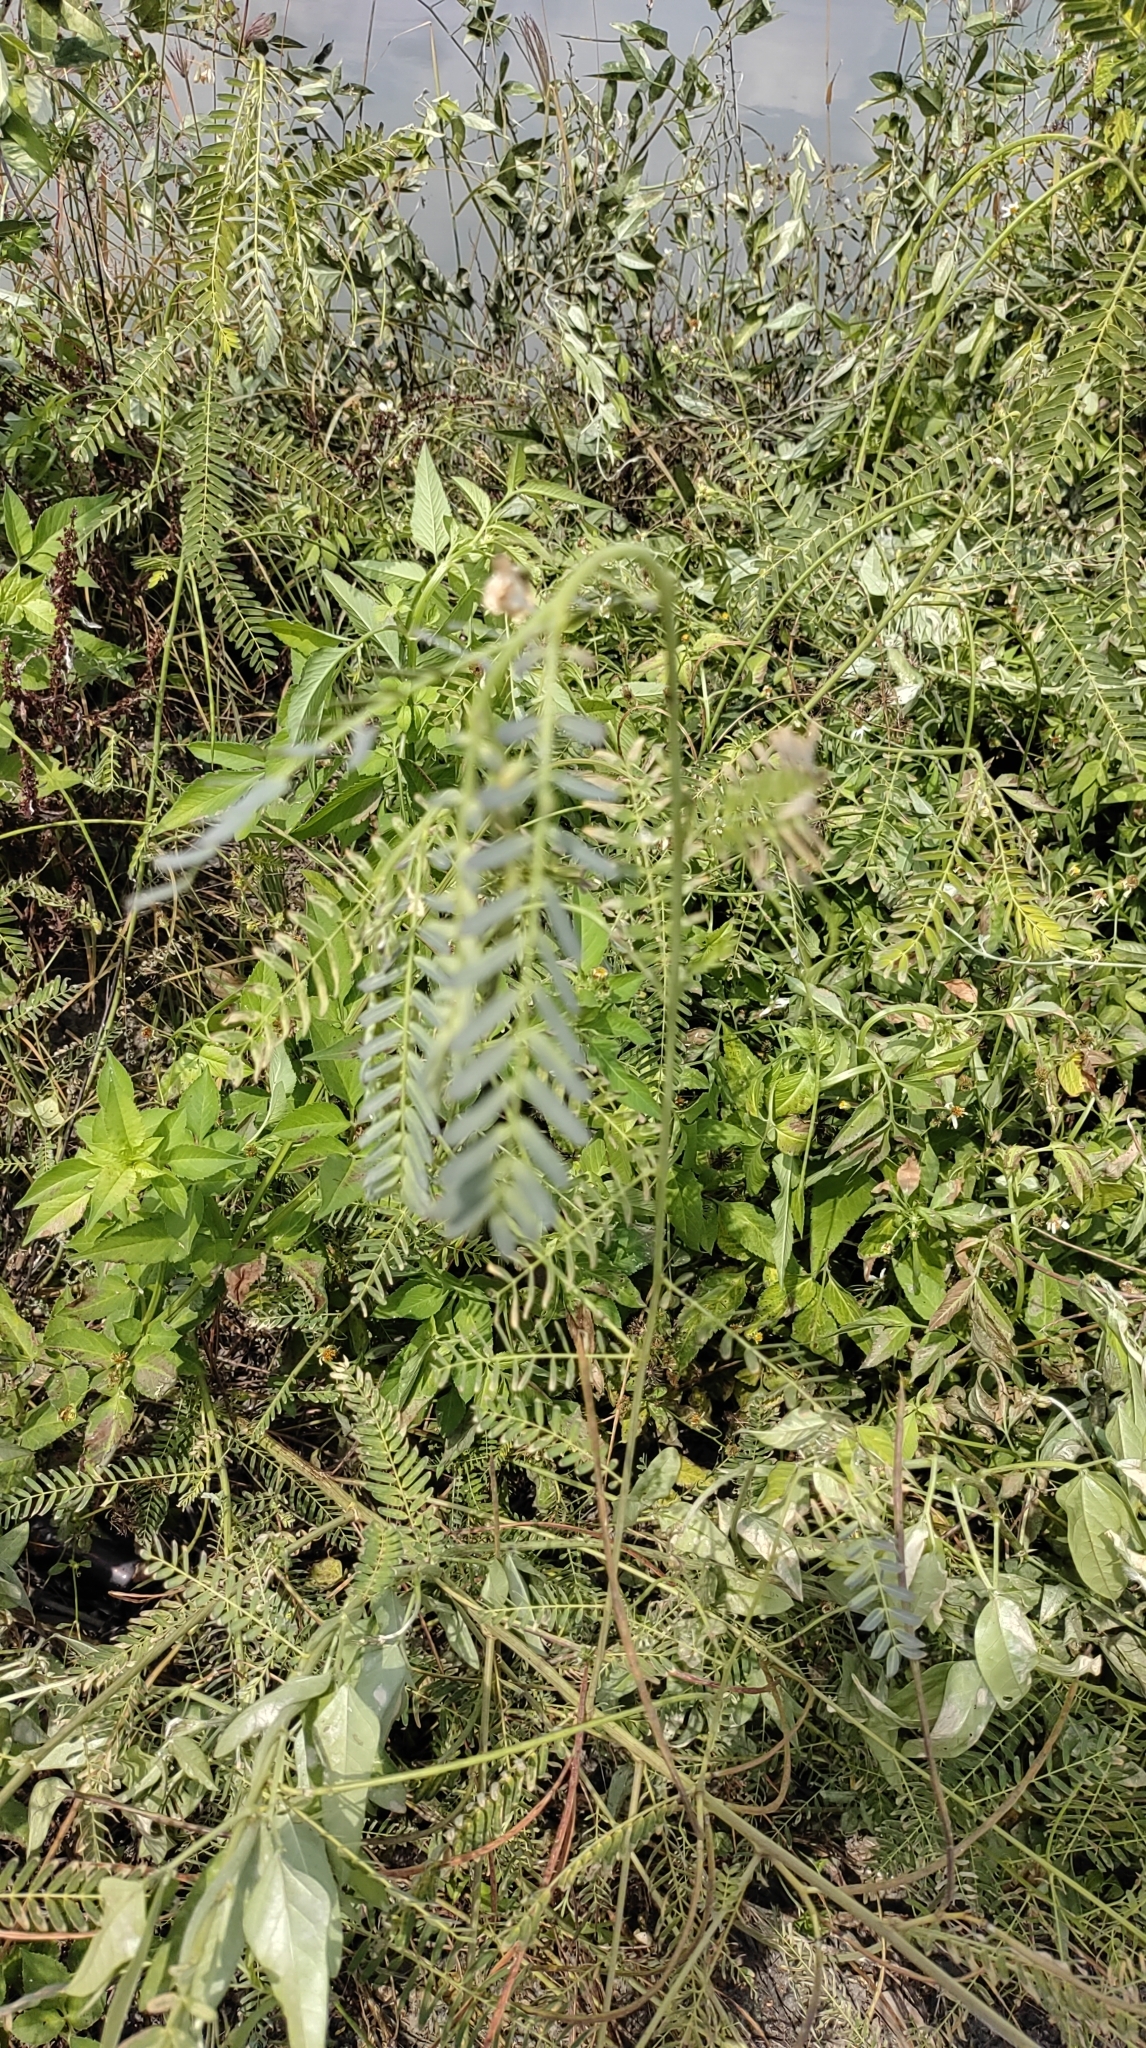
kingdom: Plantae
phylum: Tracheophyta
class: Magnoliopsida
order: Fabales
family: Fabaceae
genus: Sesbania
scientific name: Sesbania cannabina
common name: Canicha
